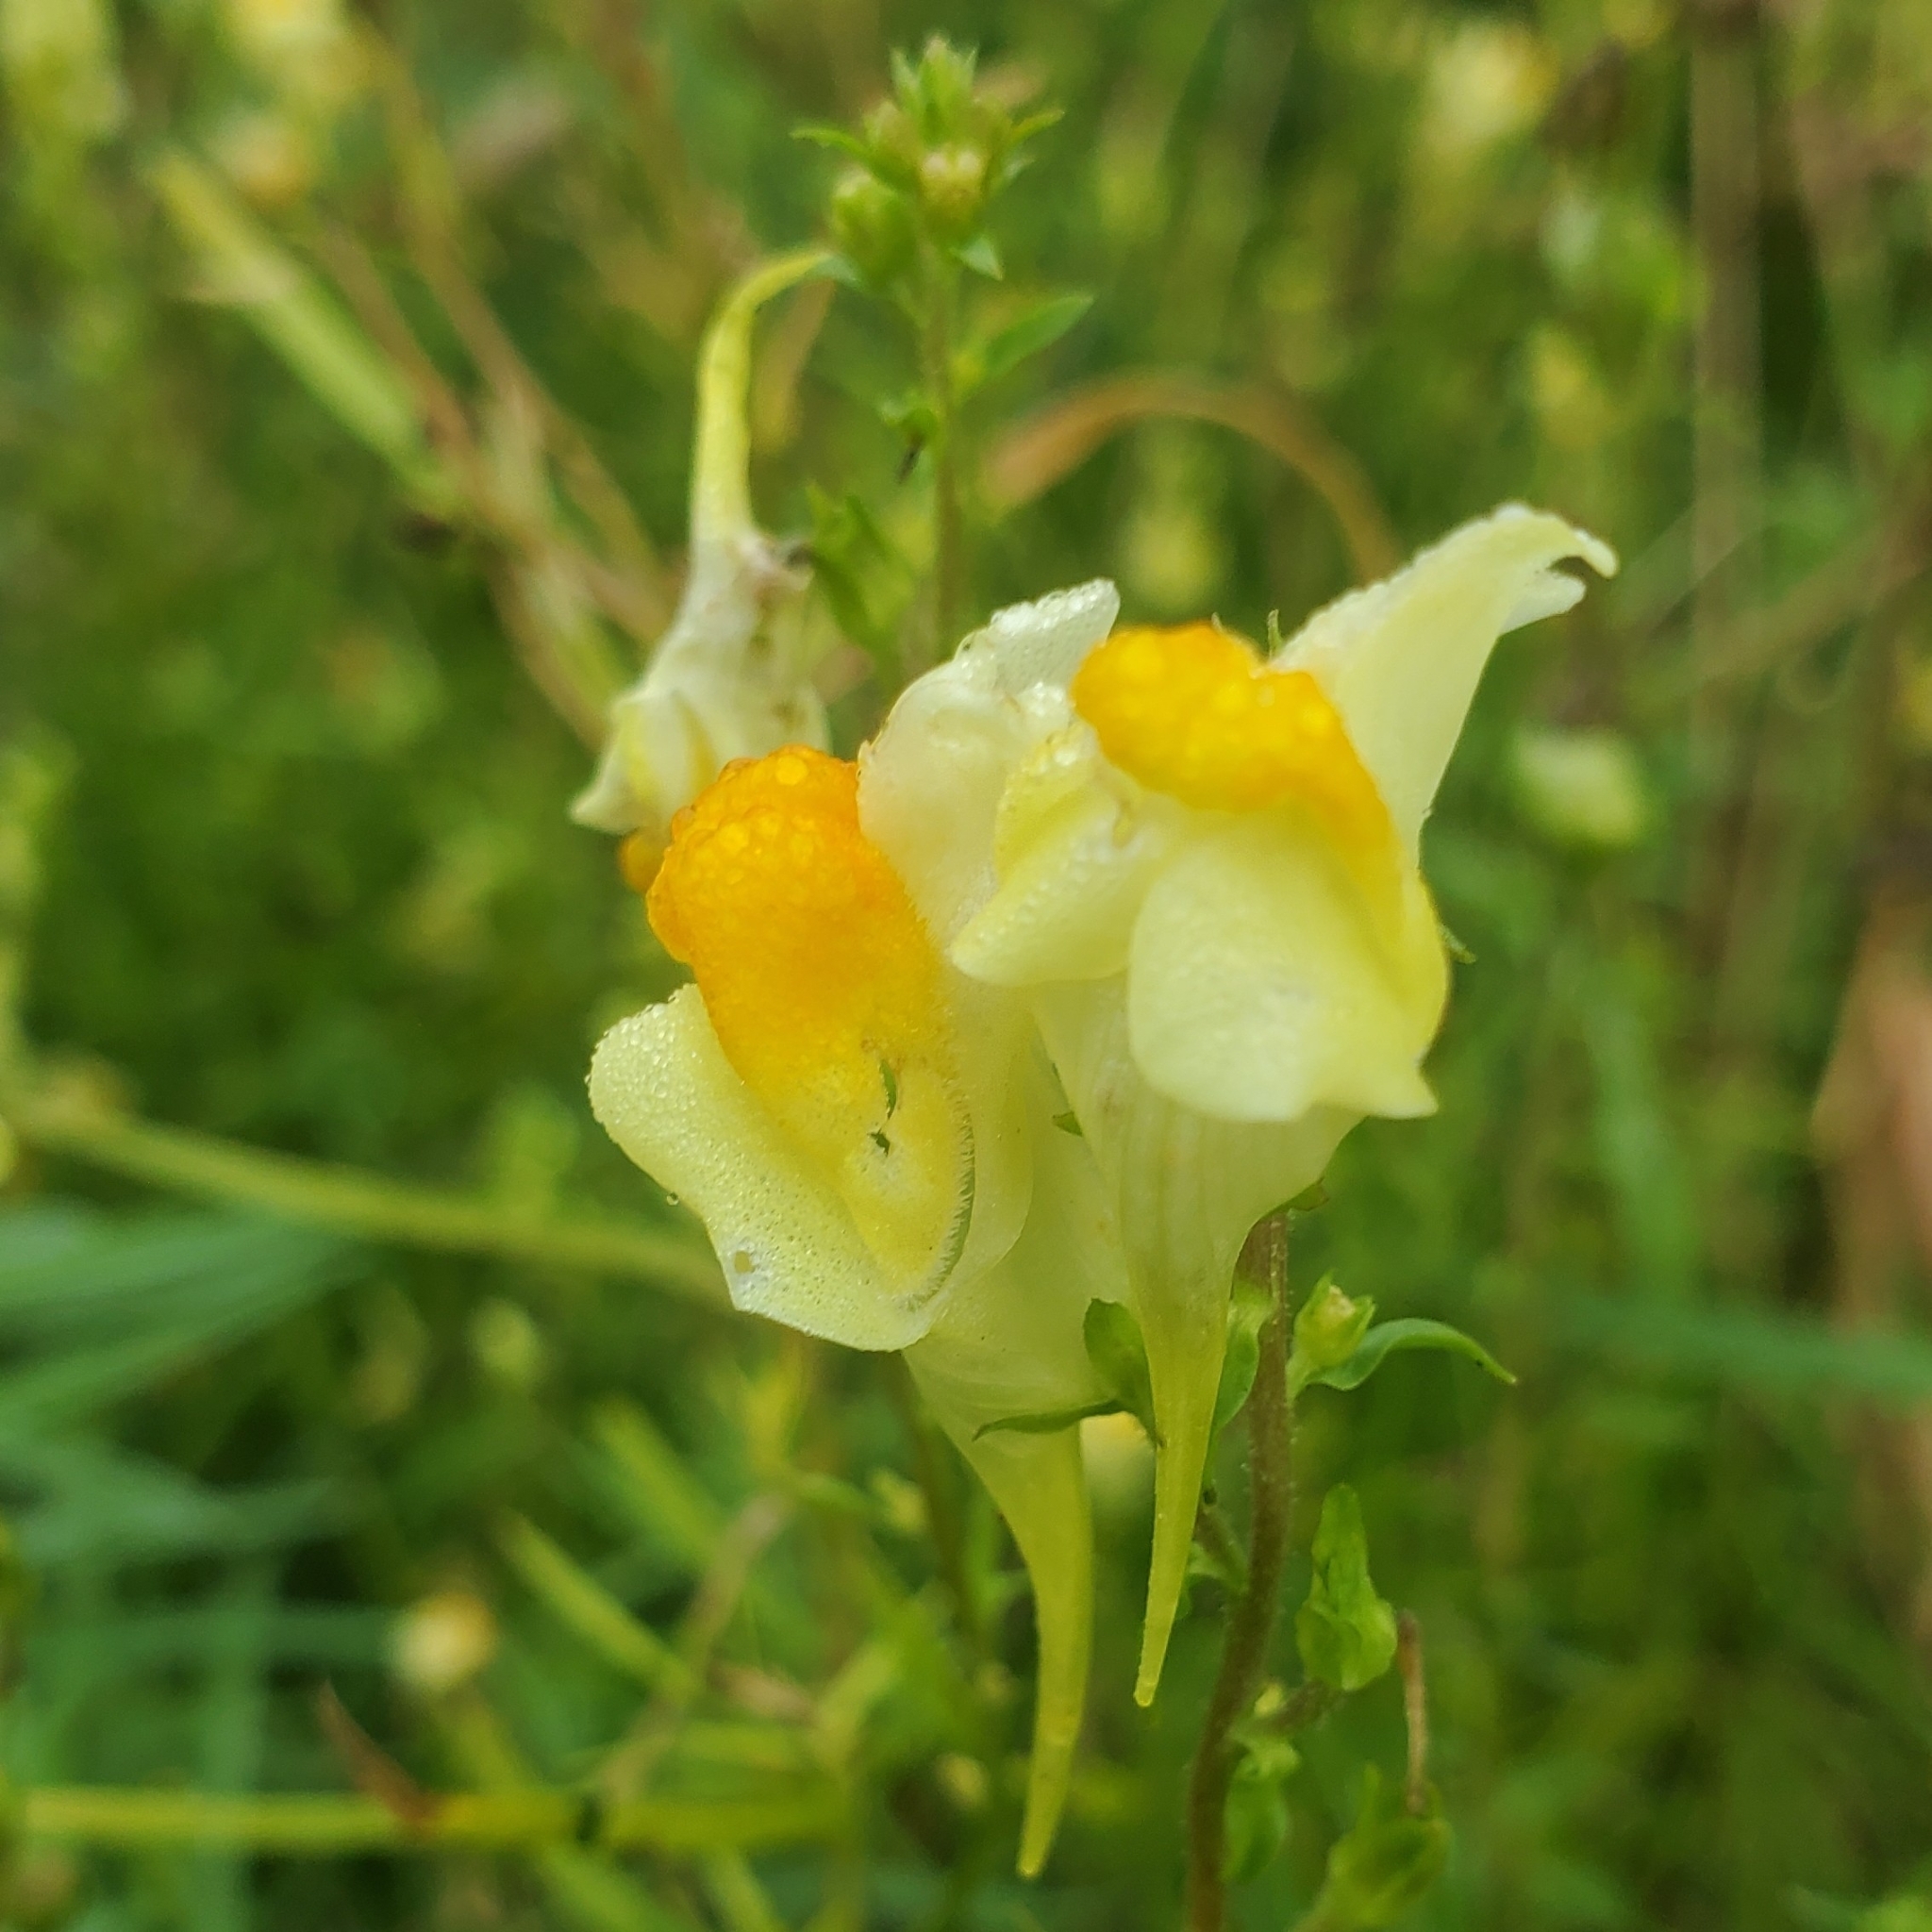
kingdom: Plantae
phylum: Tracheophyta
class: Magnoliopsida
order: Lamiales
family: Plantaginaceae
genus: Linaria
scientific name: Linaria vulgaris
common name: Butter and eggs
